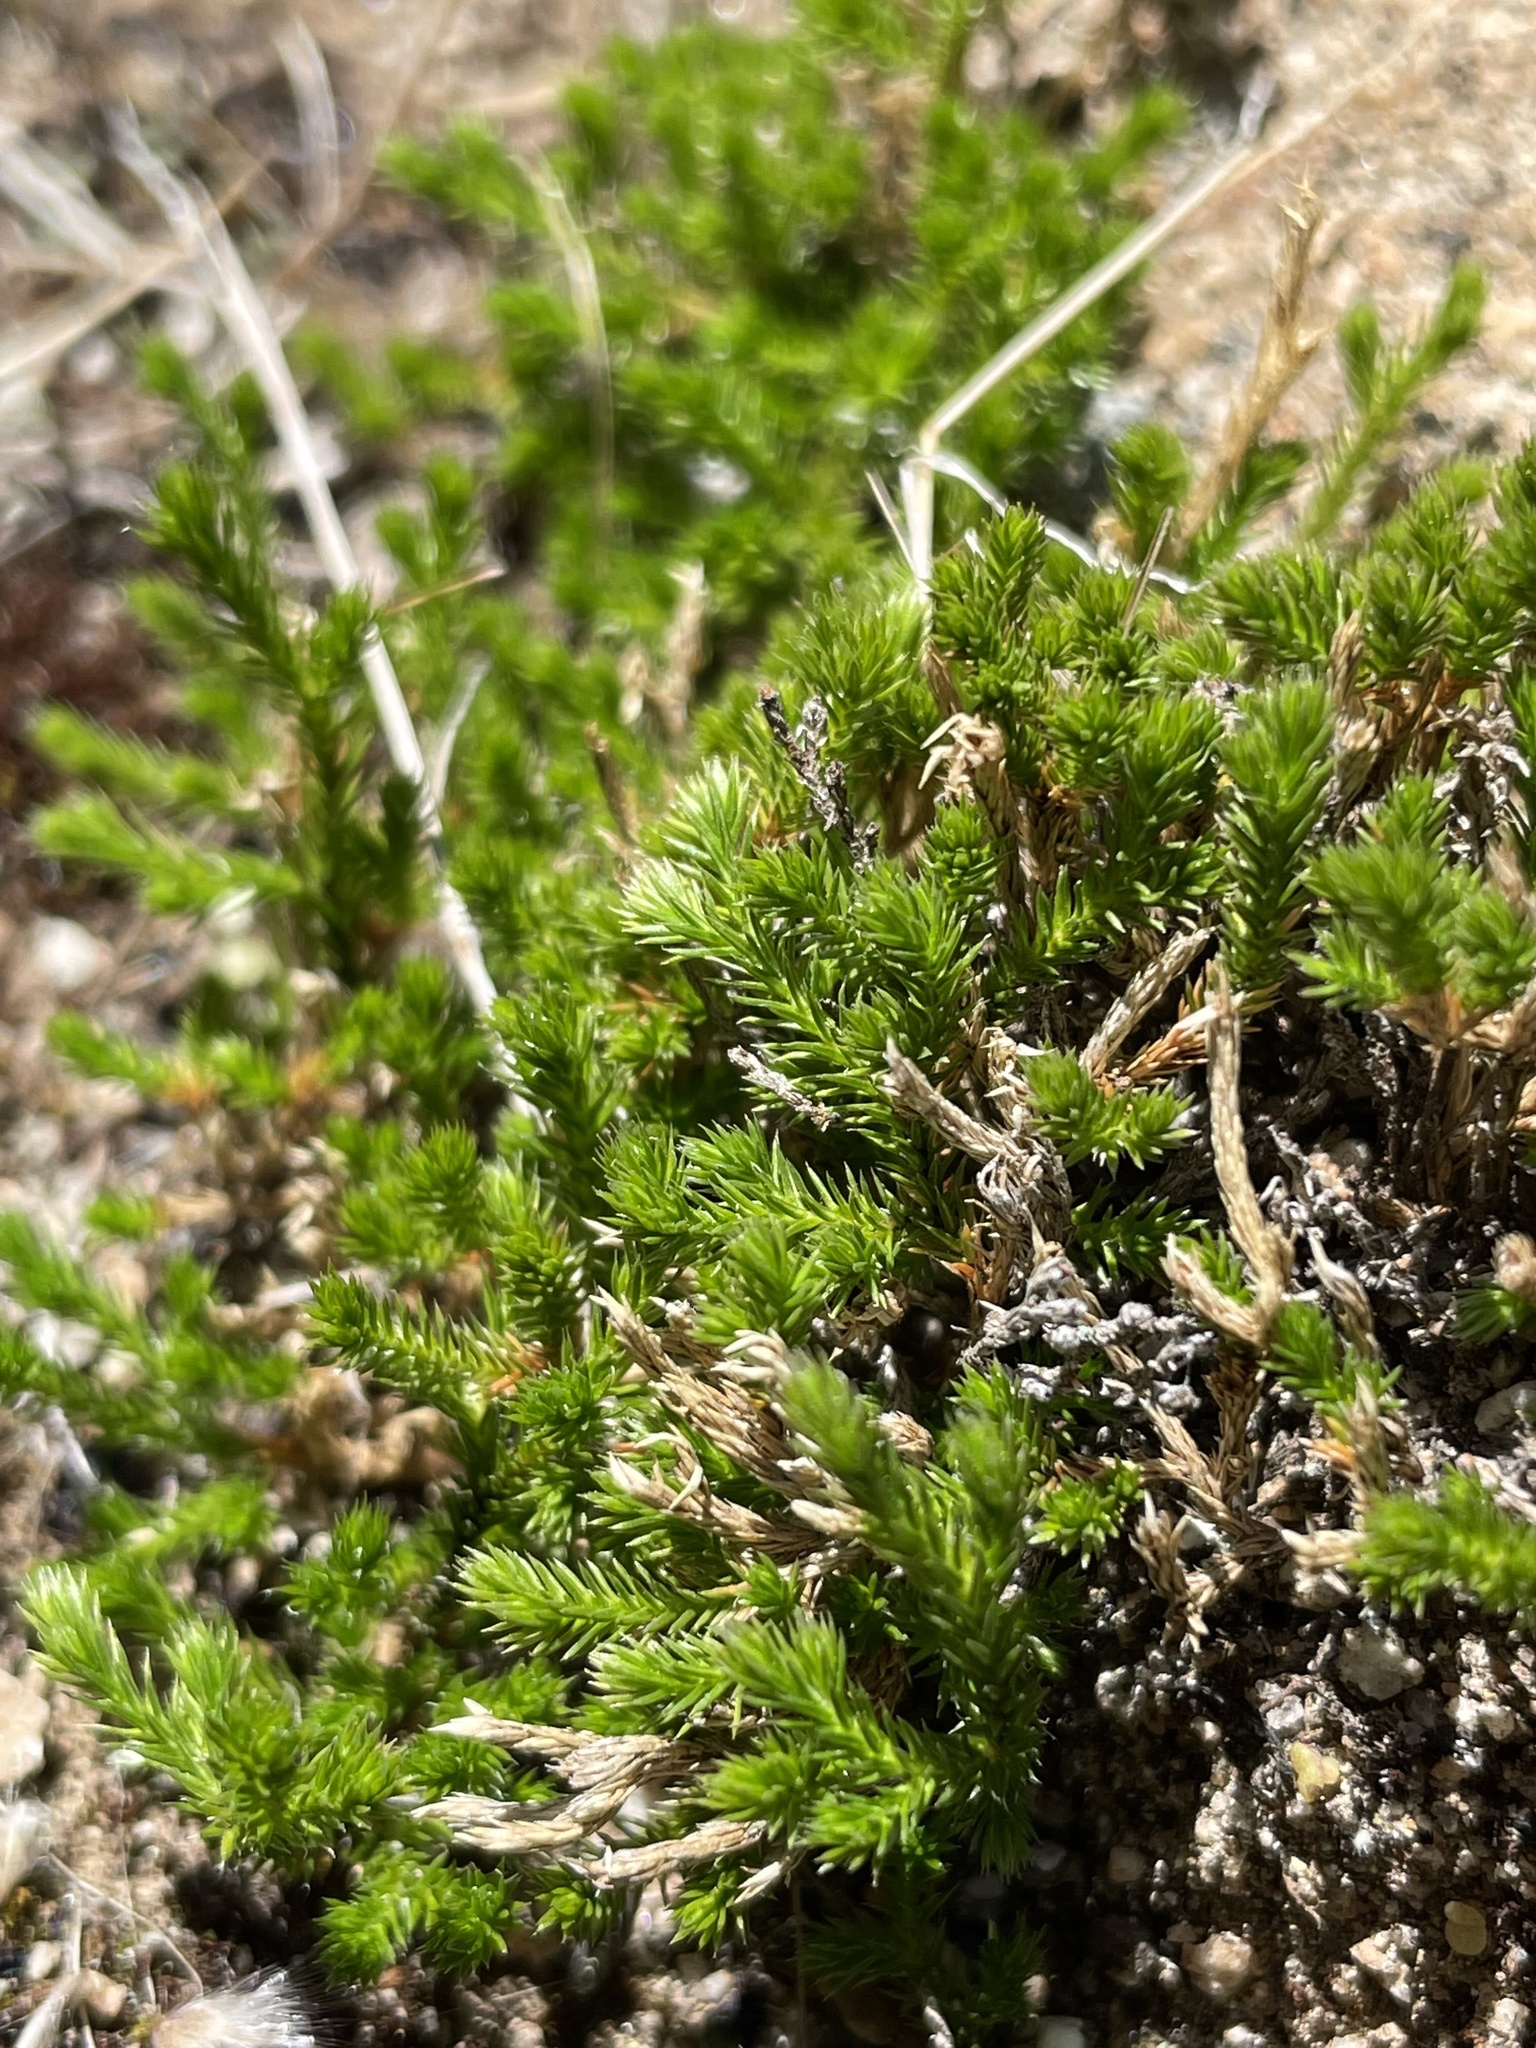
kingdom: Plantae
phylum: Tracheophyta
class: Lycopodiopsida
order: Selaginellales
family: Selaginellaceae
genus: Selaginella
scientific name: Selaginella bigelovii
